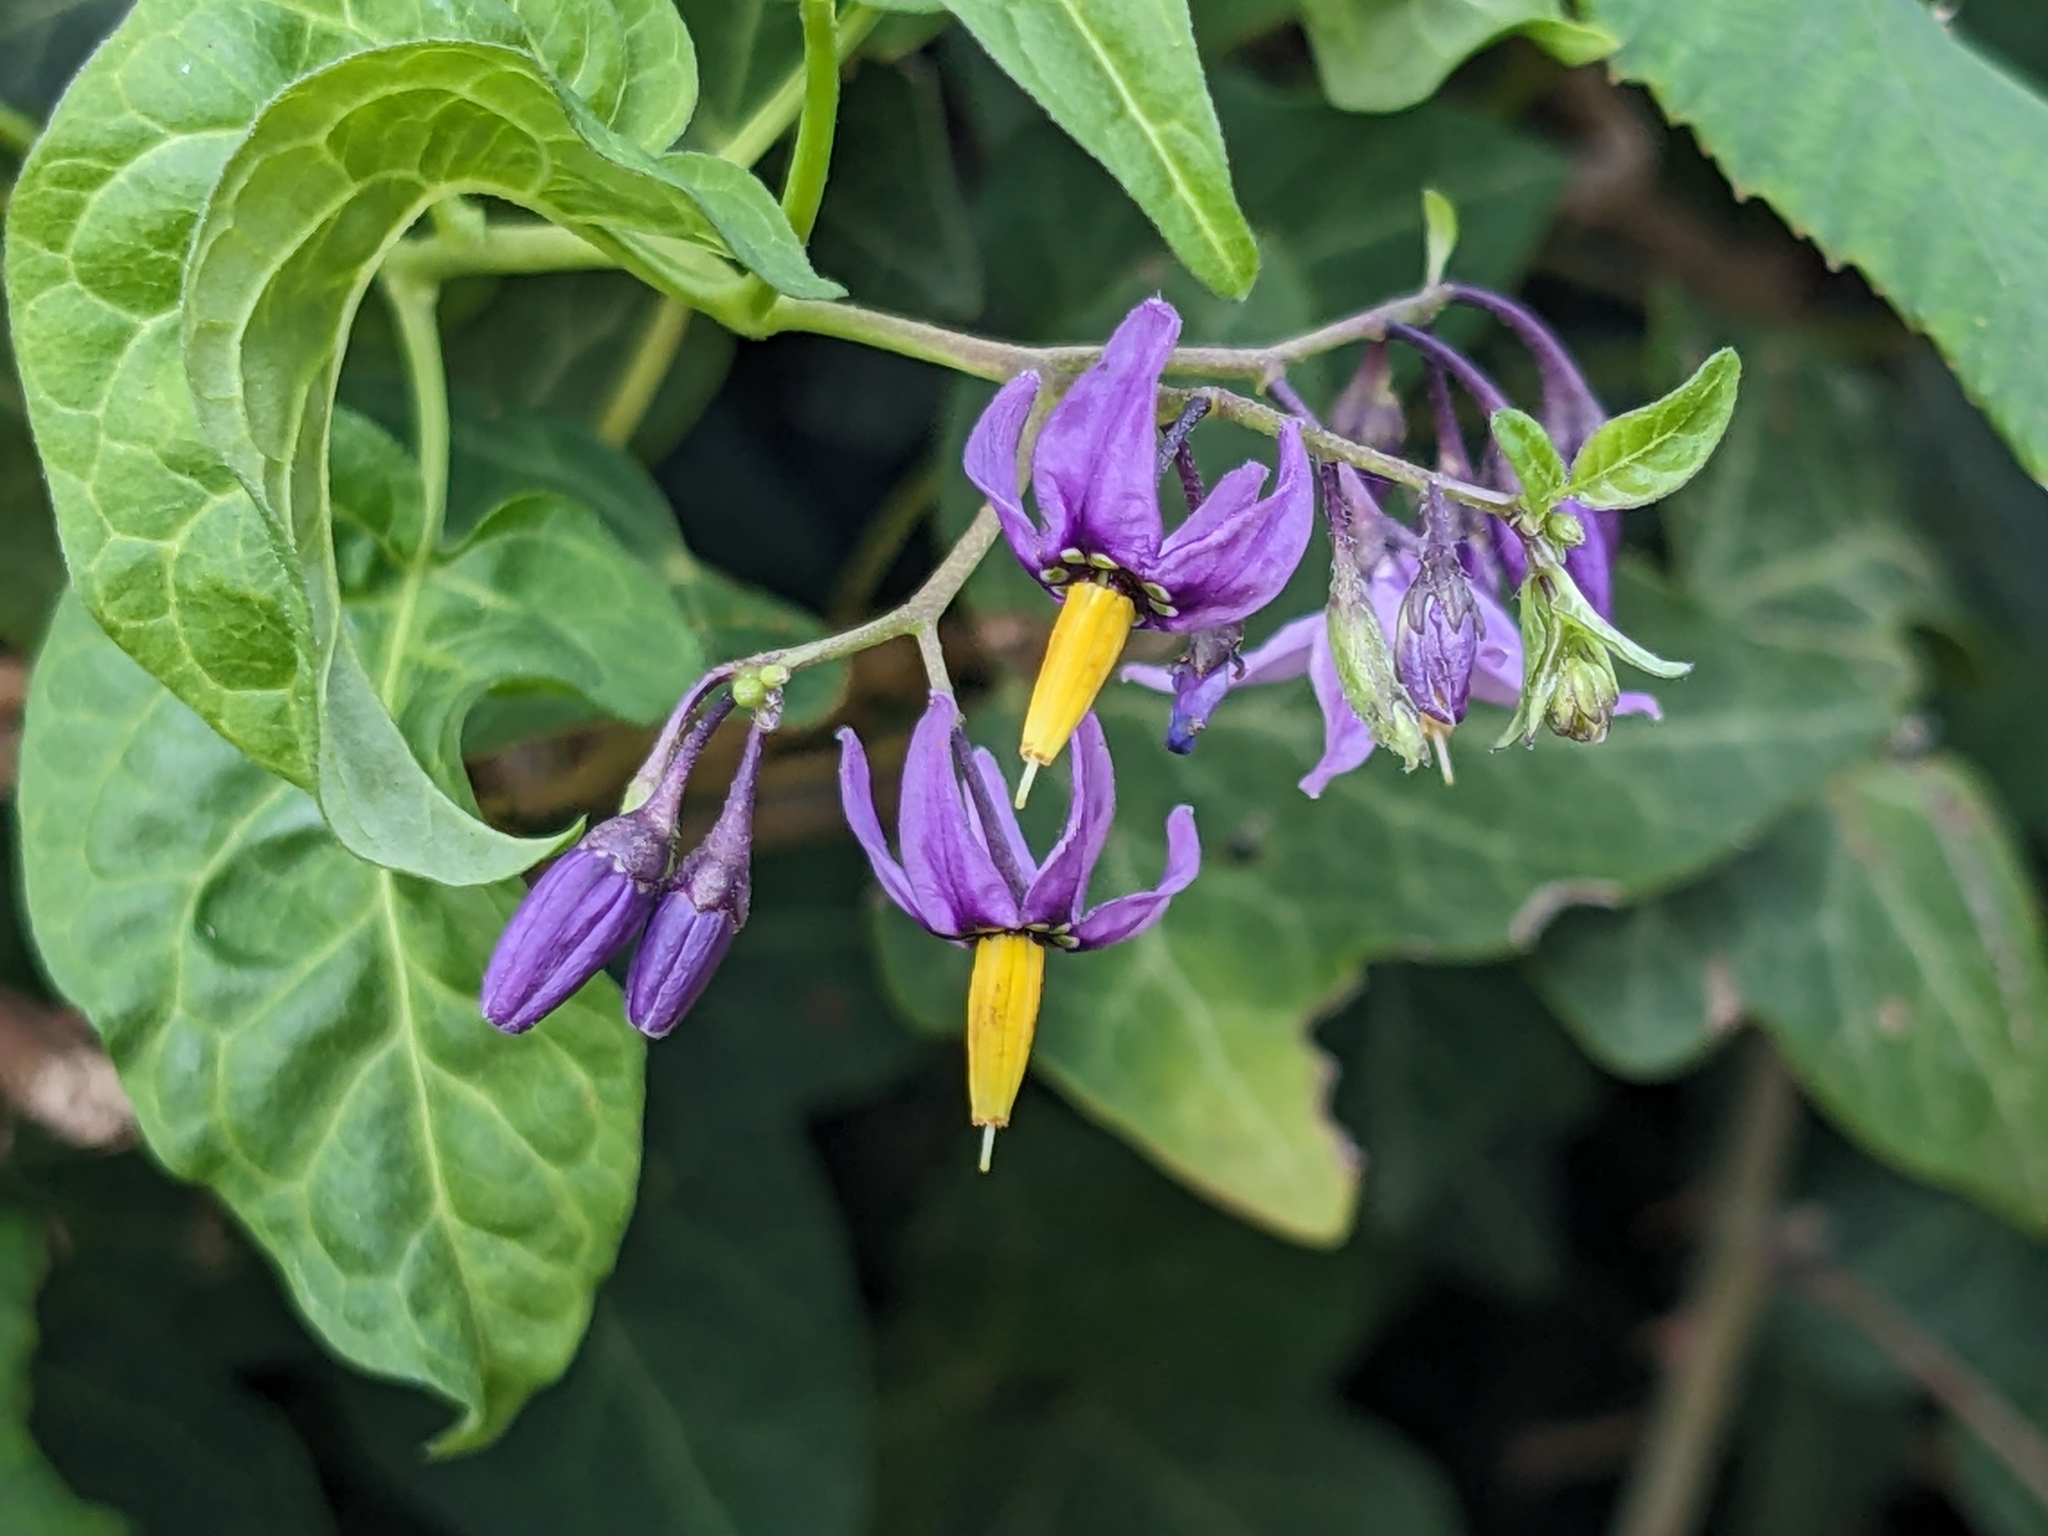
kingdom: Plantae
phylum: Tracheophyta
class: Magnoliopsida
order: Solanales
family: Solanaceae
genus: Solanum
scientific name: Solanum dulcamara
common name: Climbing nightshade
